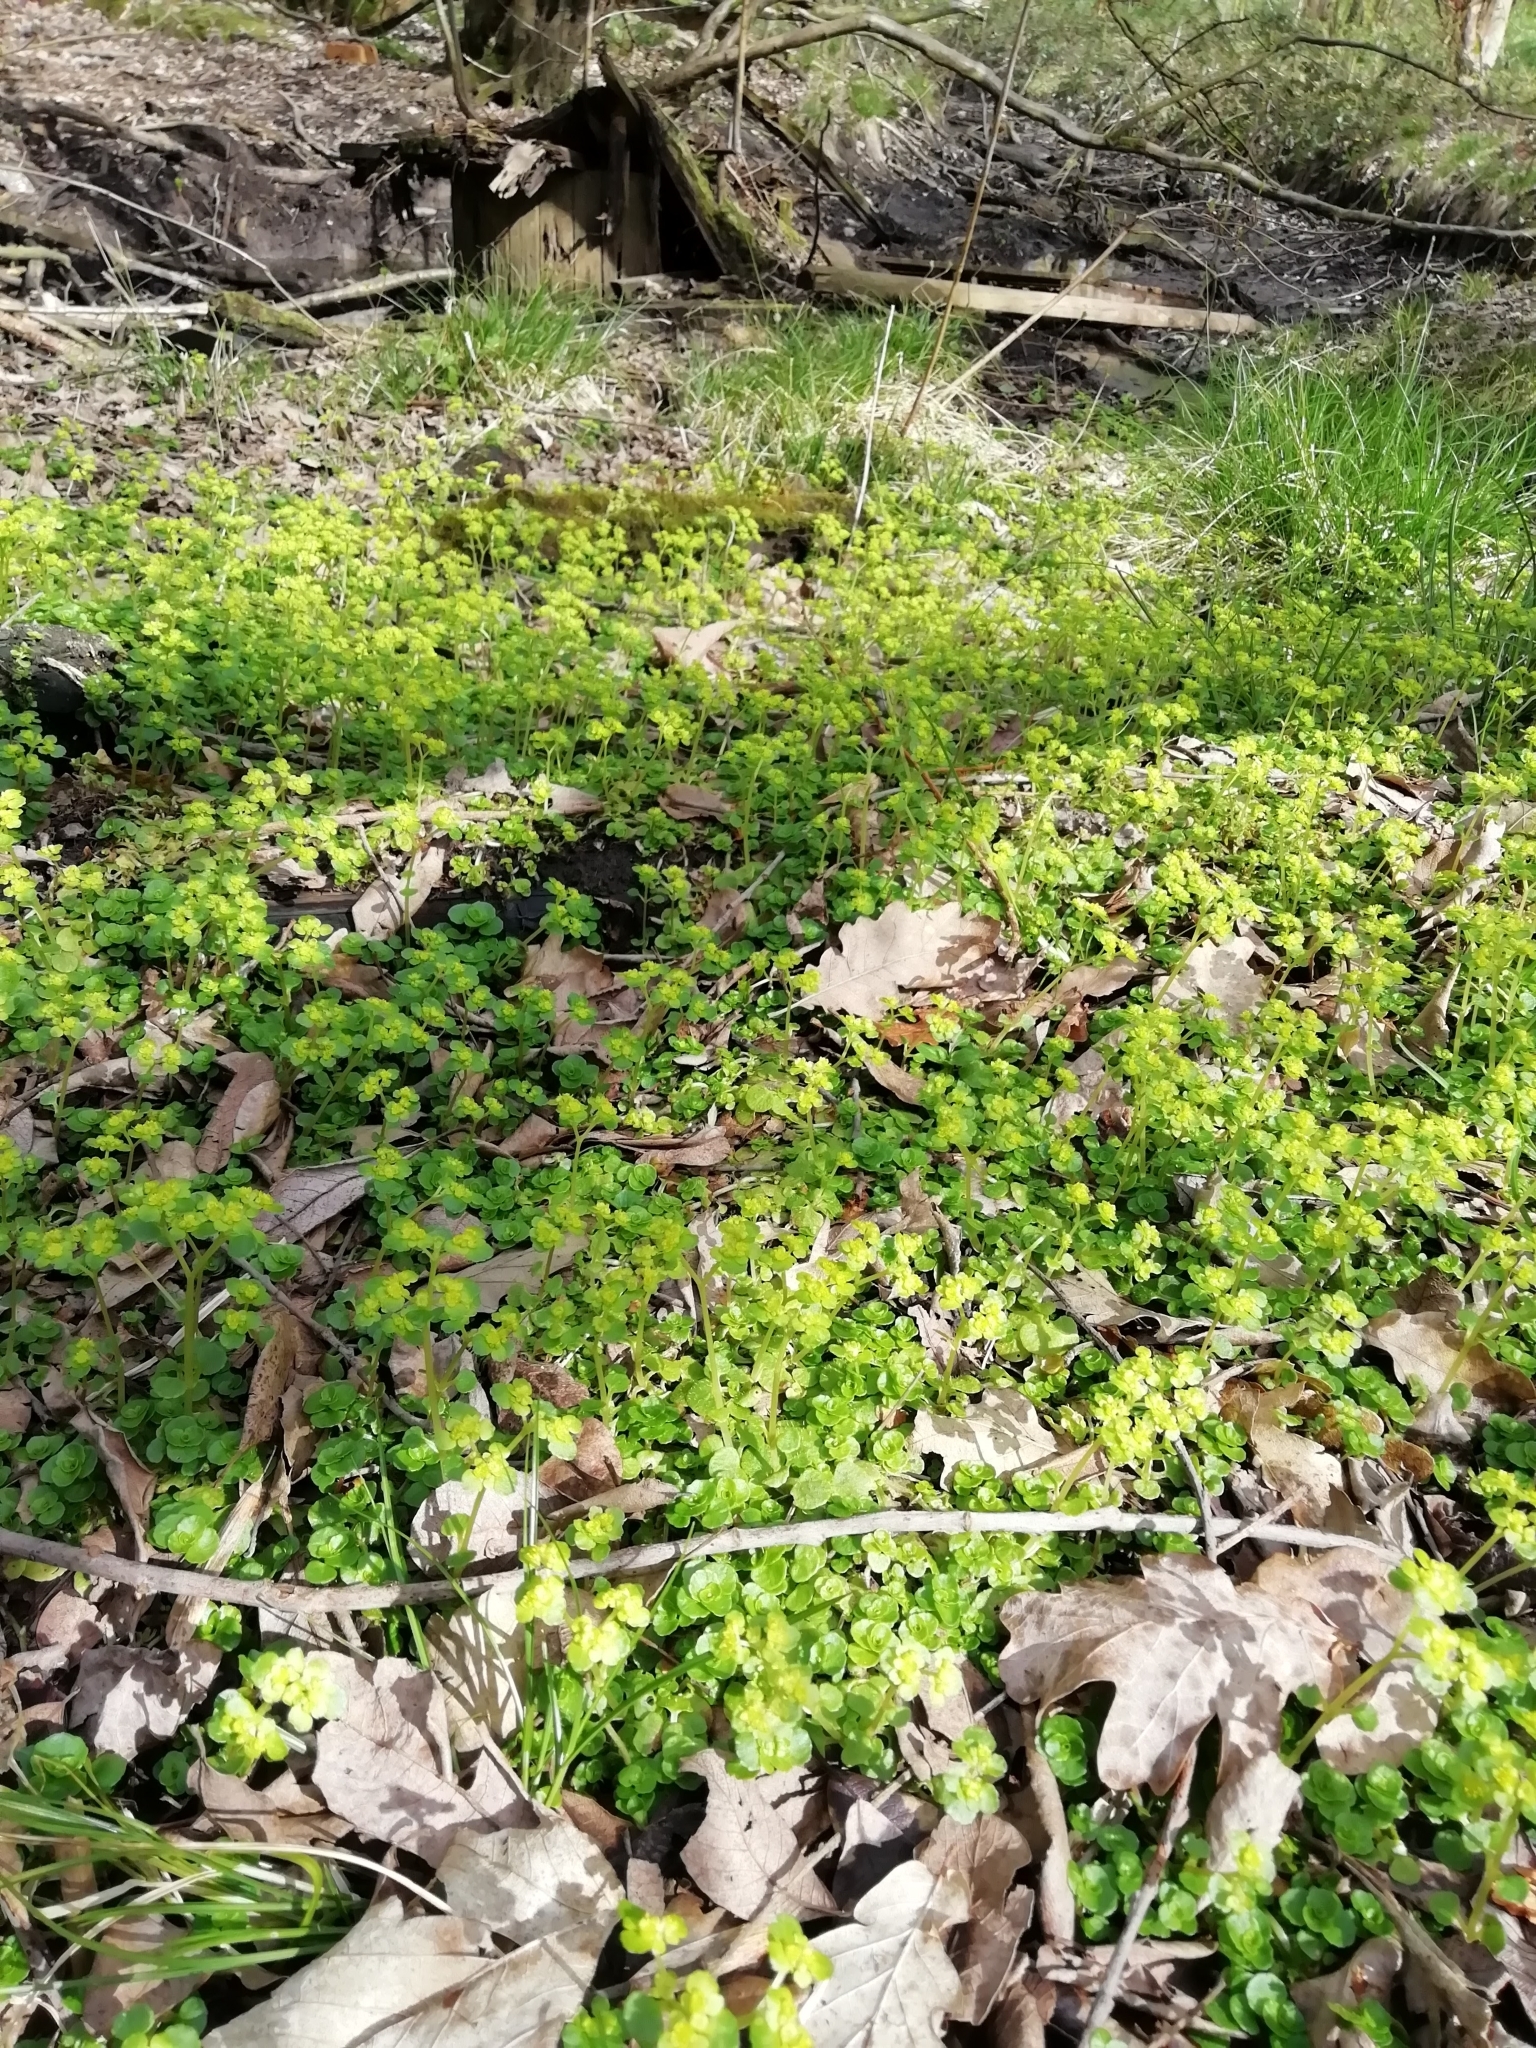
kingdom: Plantae
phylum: Tracheophyta
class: Magnoliopsida
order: Saxifragales
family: Saxifragaceae
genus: Chrysosplenium
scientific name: Chrysosplenium oppositifolium
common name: Opposite-leaved golden-saxifrage
